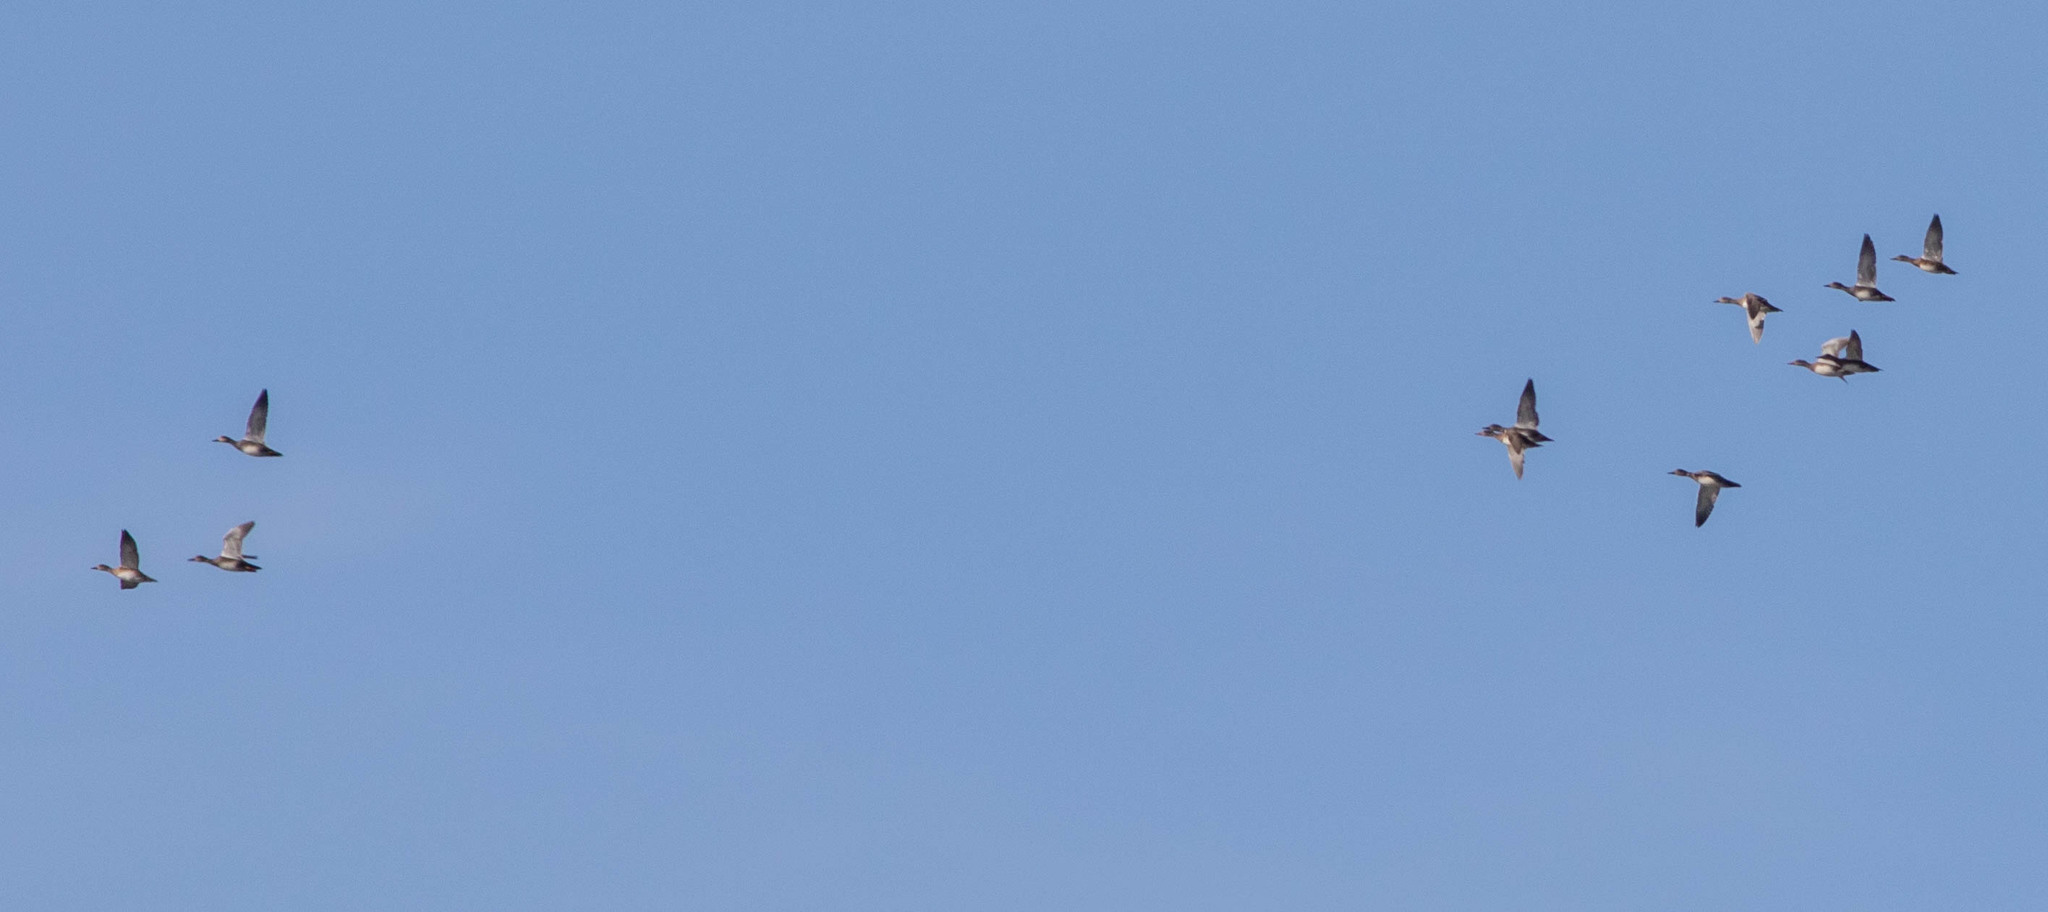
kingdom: Animalia
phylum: Chordata
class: Aves
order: Anseriformes
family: Anatidae
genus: Anas
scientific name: Anas acuta
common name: Northern pintail
